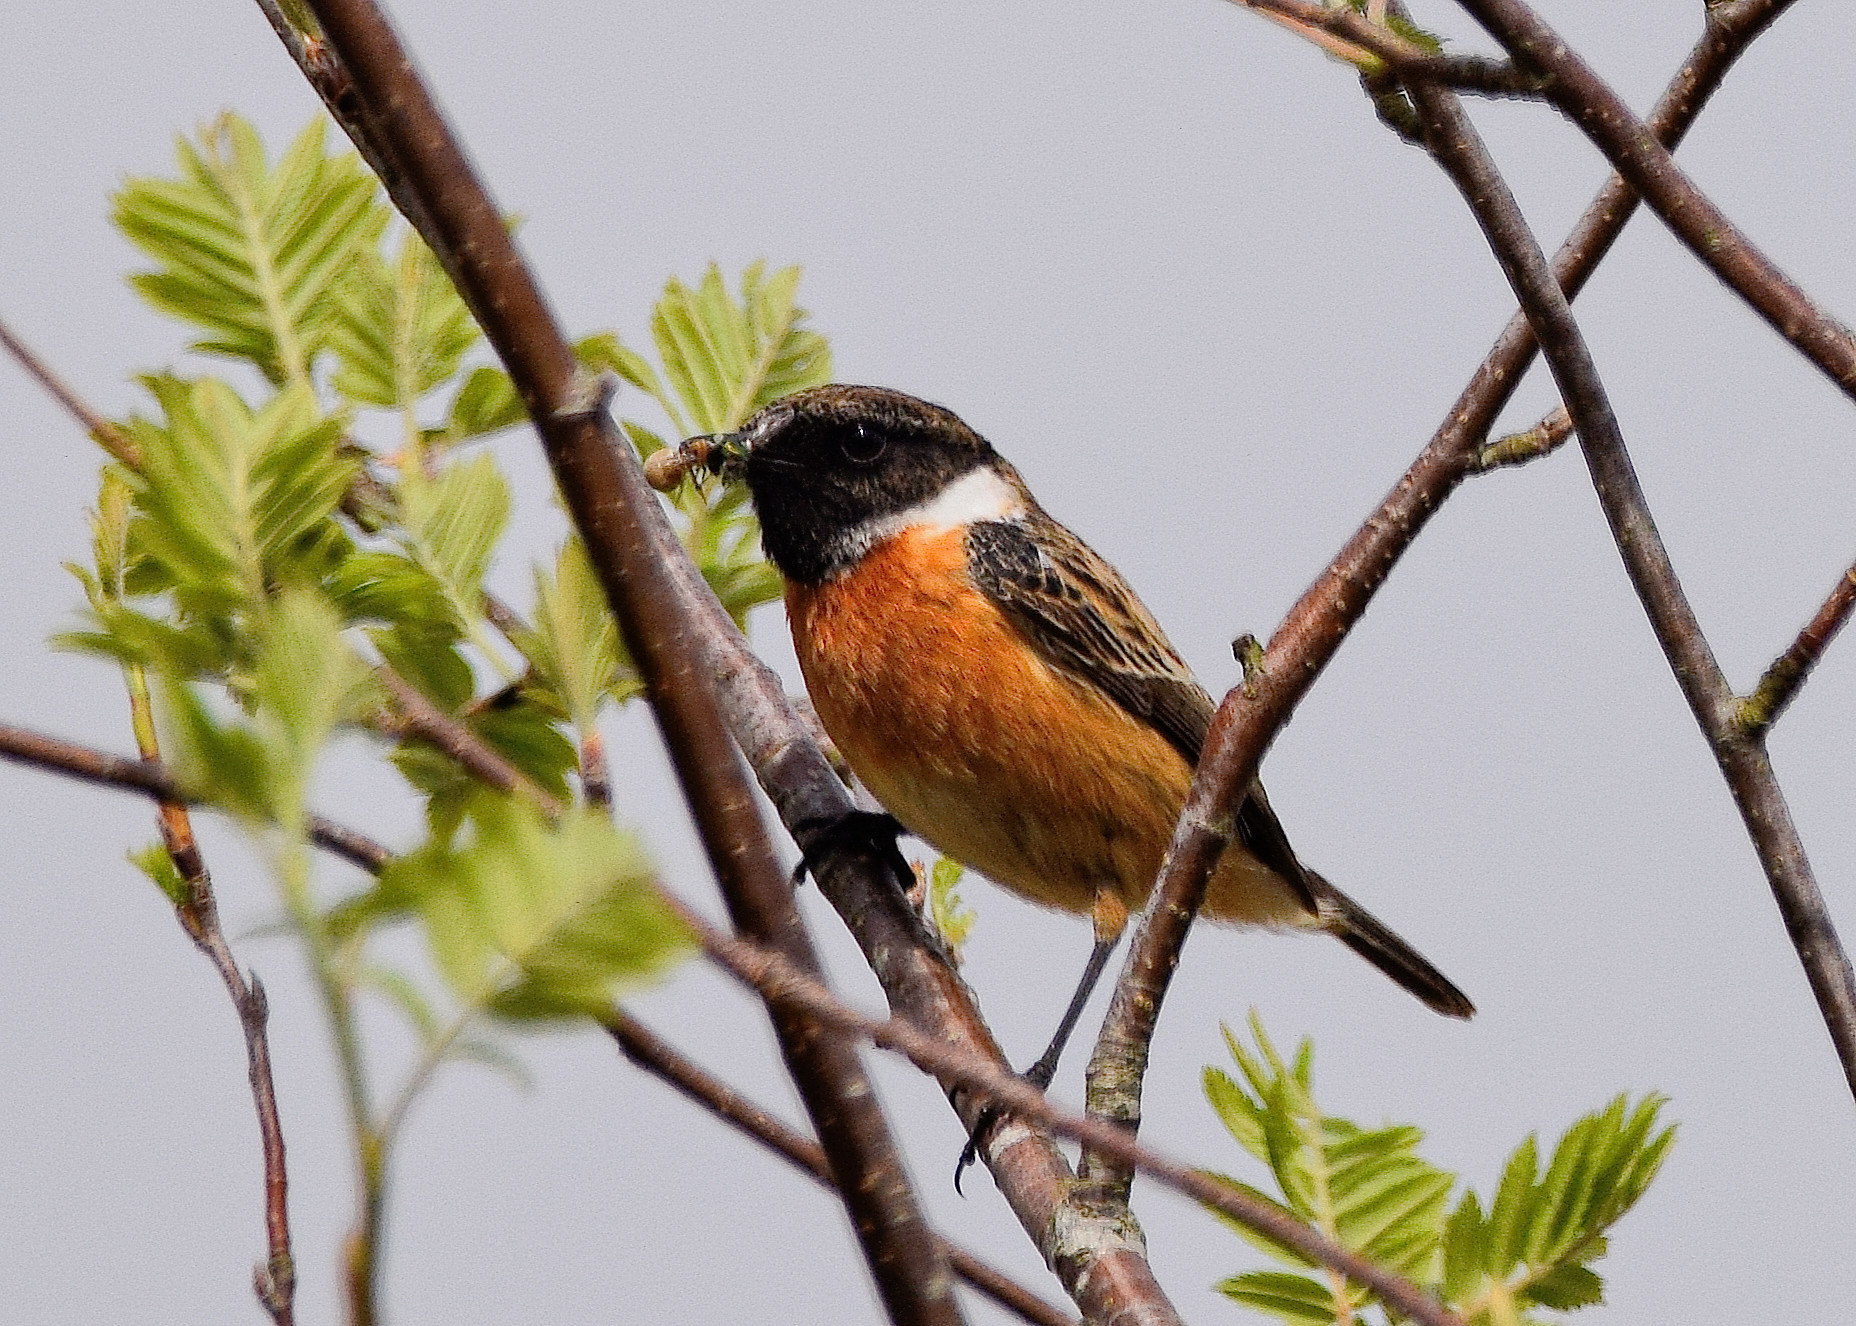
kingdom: Animalia
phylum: Chordata
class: Aves
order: Passeriformes
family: Muscicapidae
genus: Saxicola
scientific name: Saxicola rubicola
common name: European stonechat
